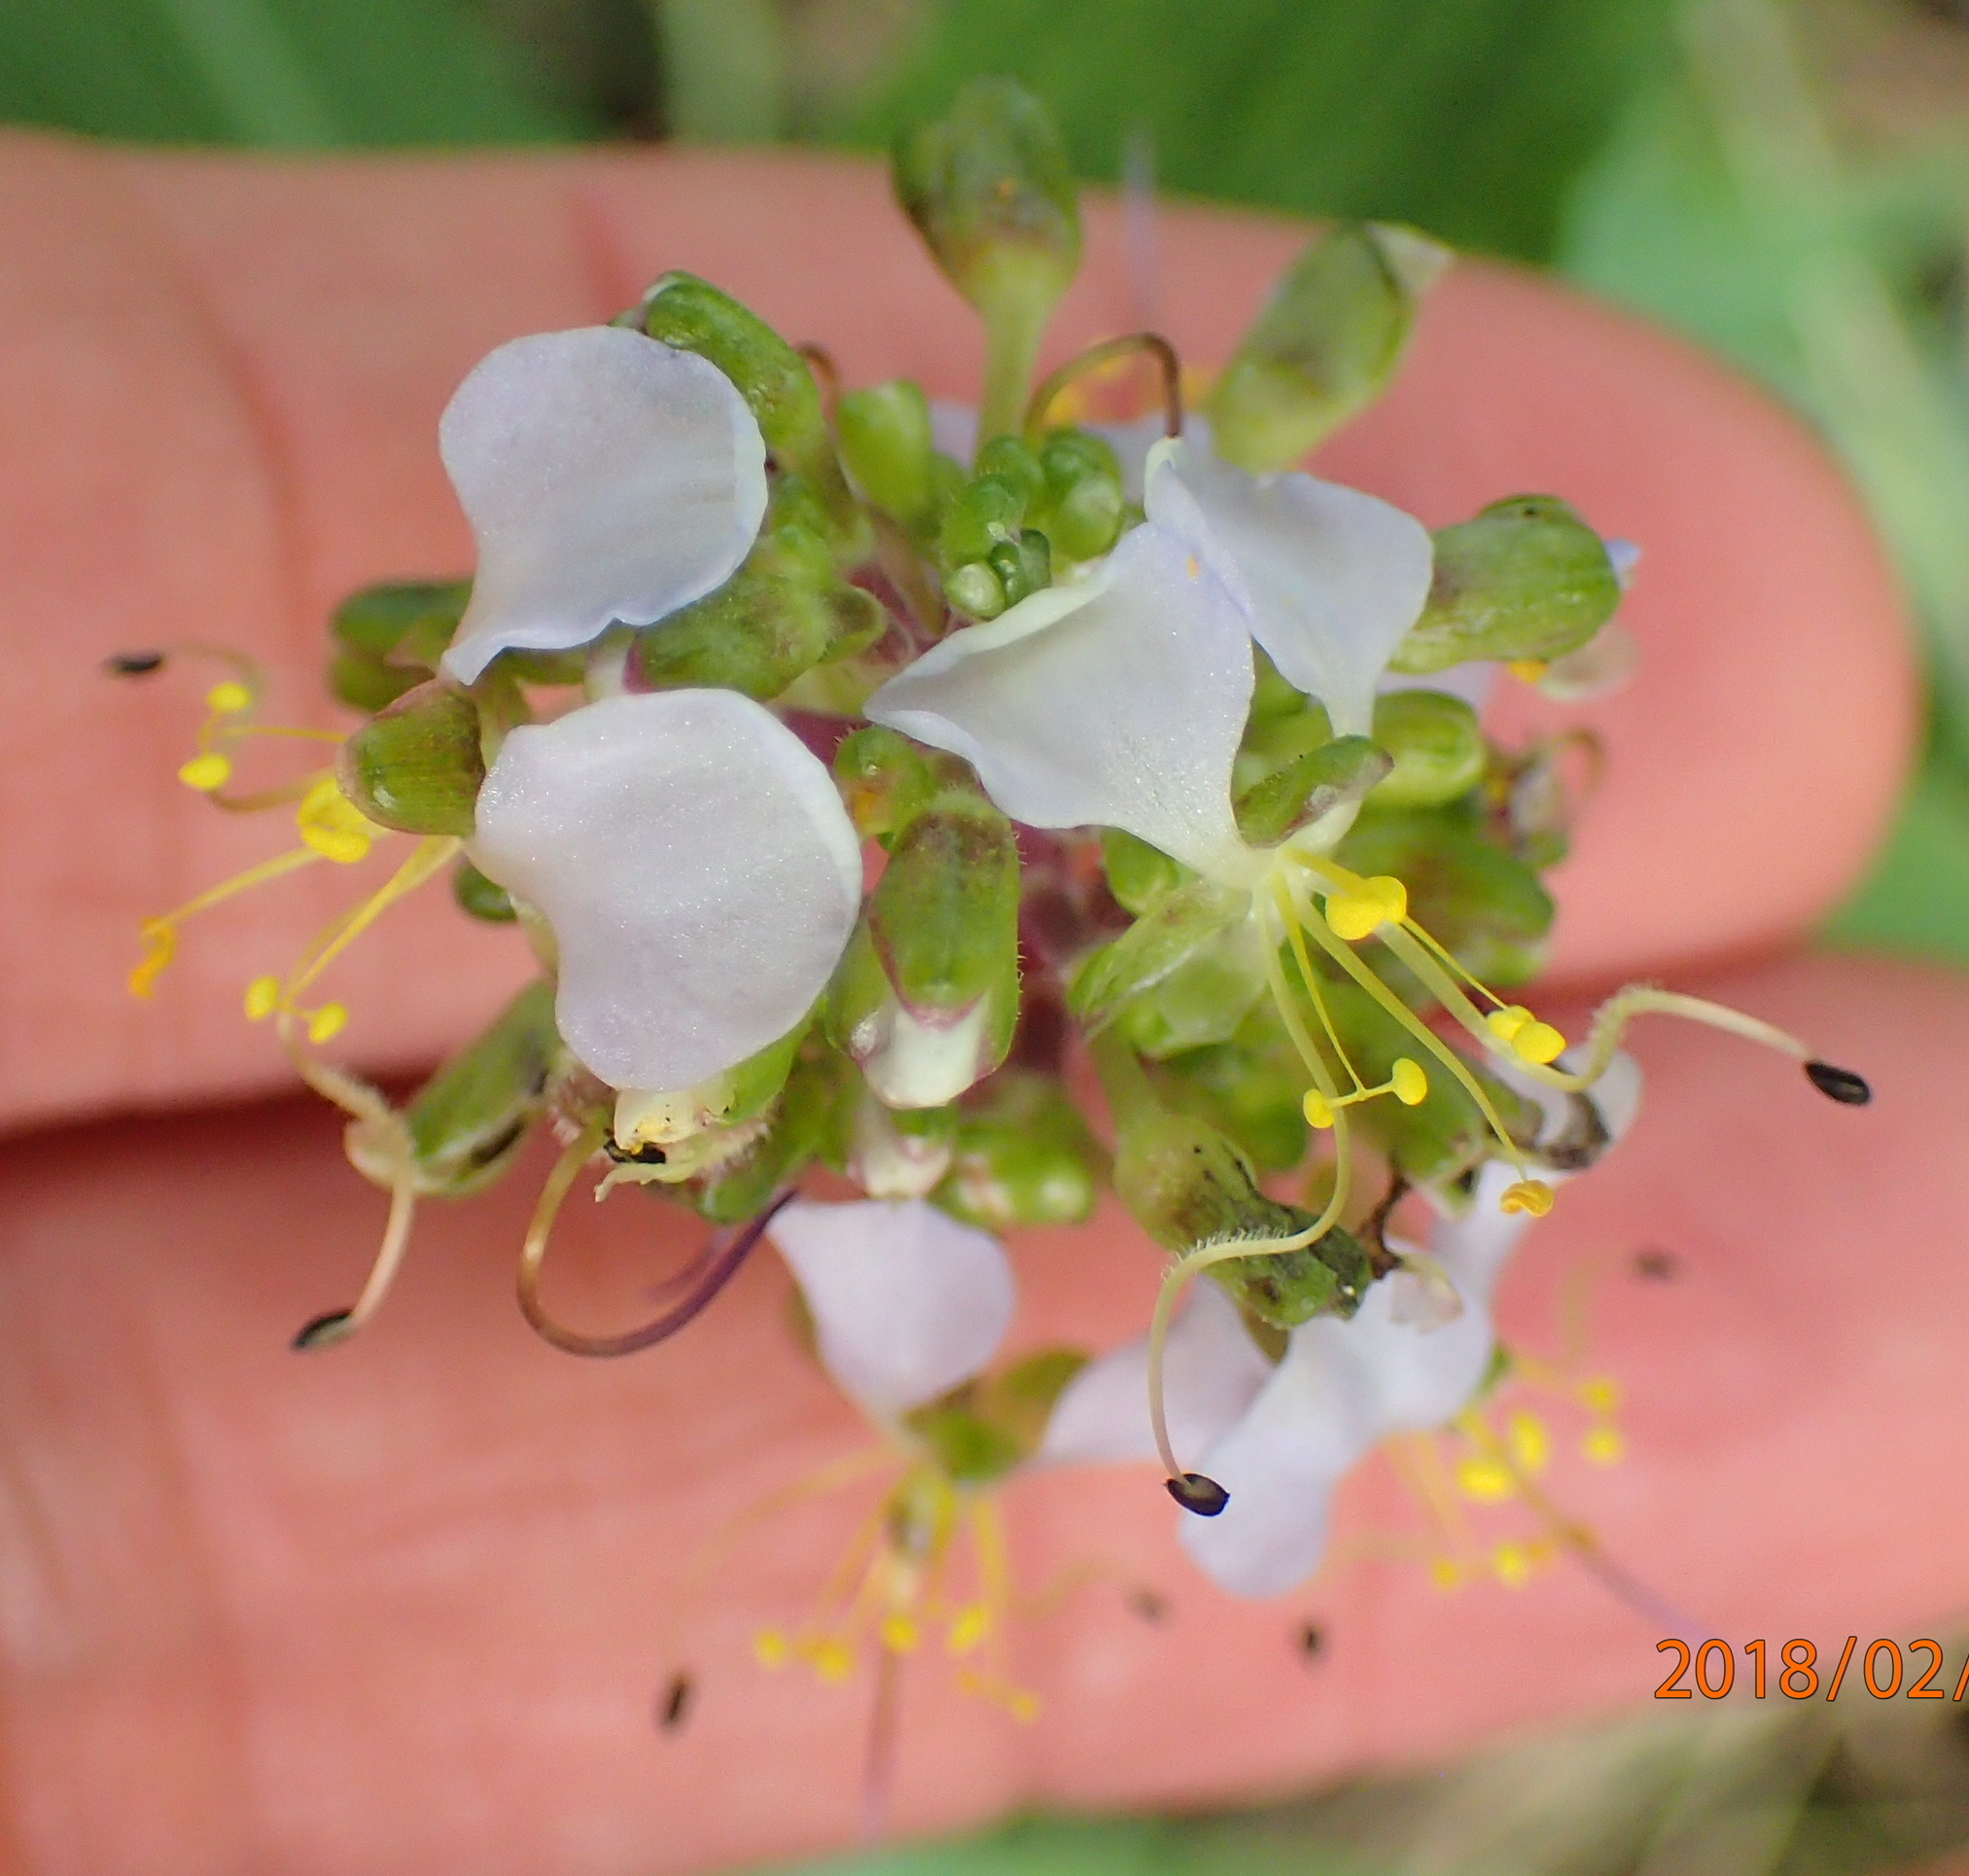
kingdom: Plantae
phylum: Tracheophyta
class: Liliopsida
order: Commelinales
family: Commelinaceae
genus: Aneilema
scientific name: Aneilema dregeanum
